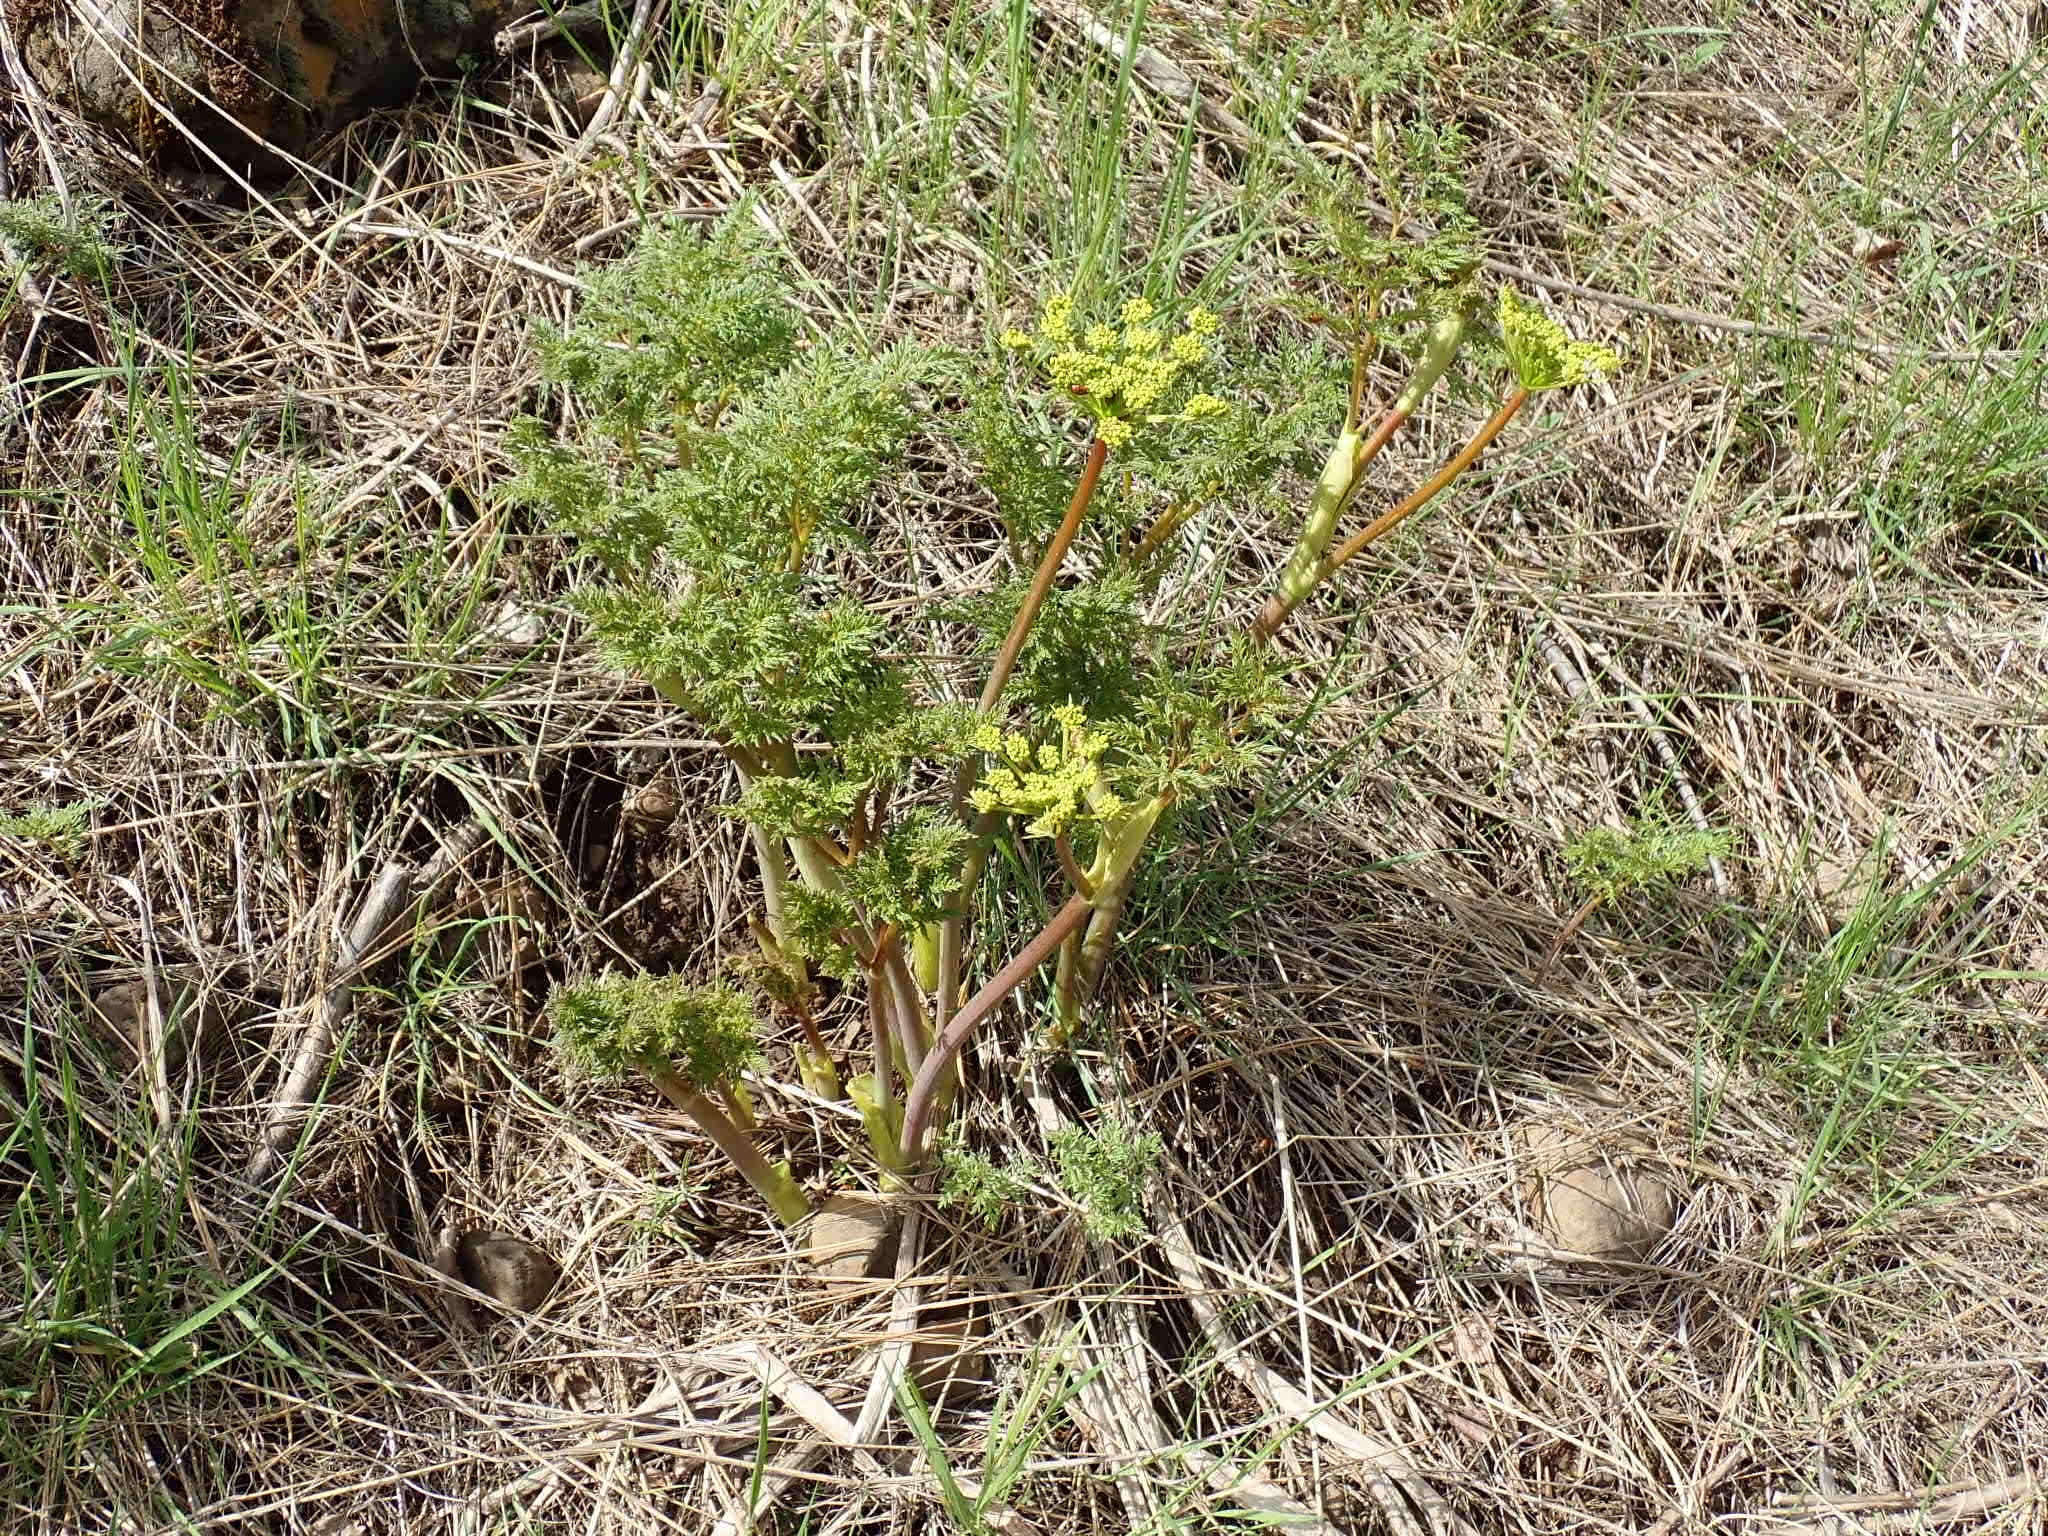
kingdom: Plantae
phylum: Tracheophyta
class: Magnoliopsida
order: Apiales
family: Apiaceae
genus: Lomatium
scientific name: Lomatium multifidum
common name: Carrot-leaved biscuitroot
